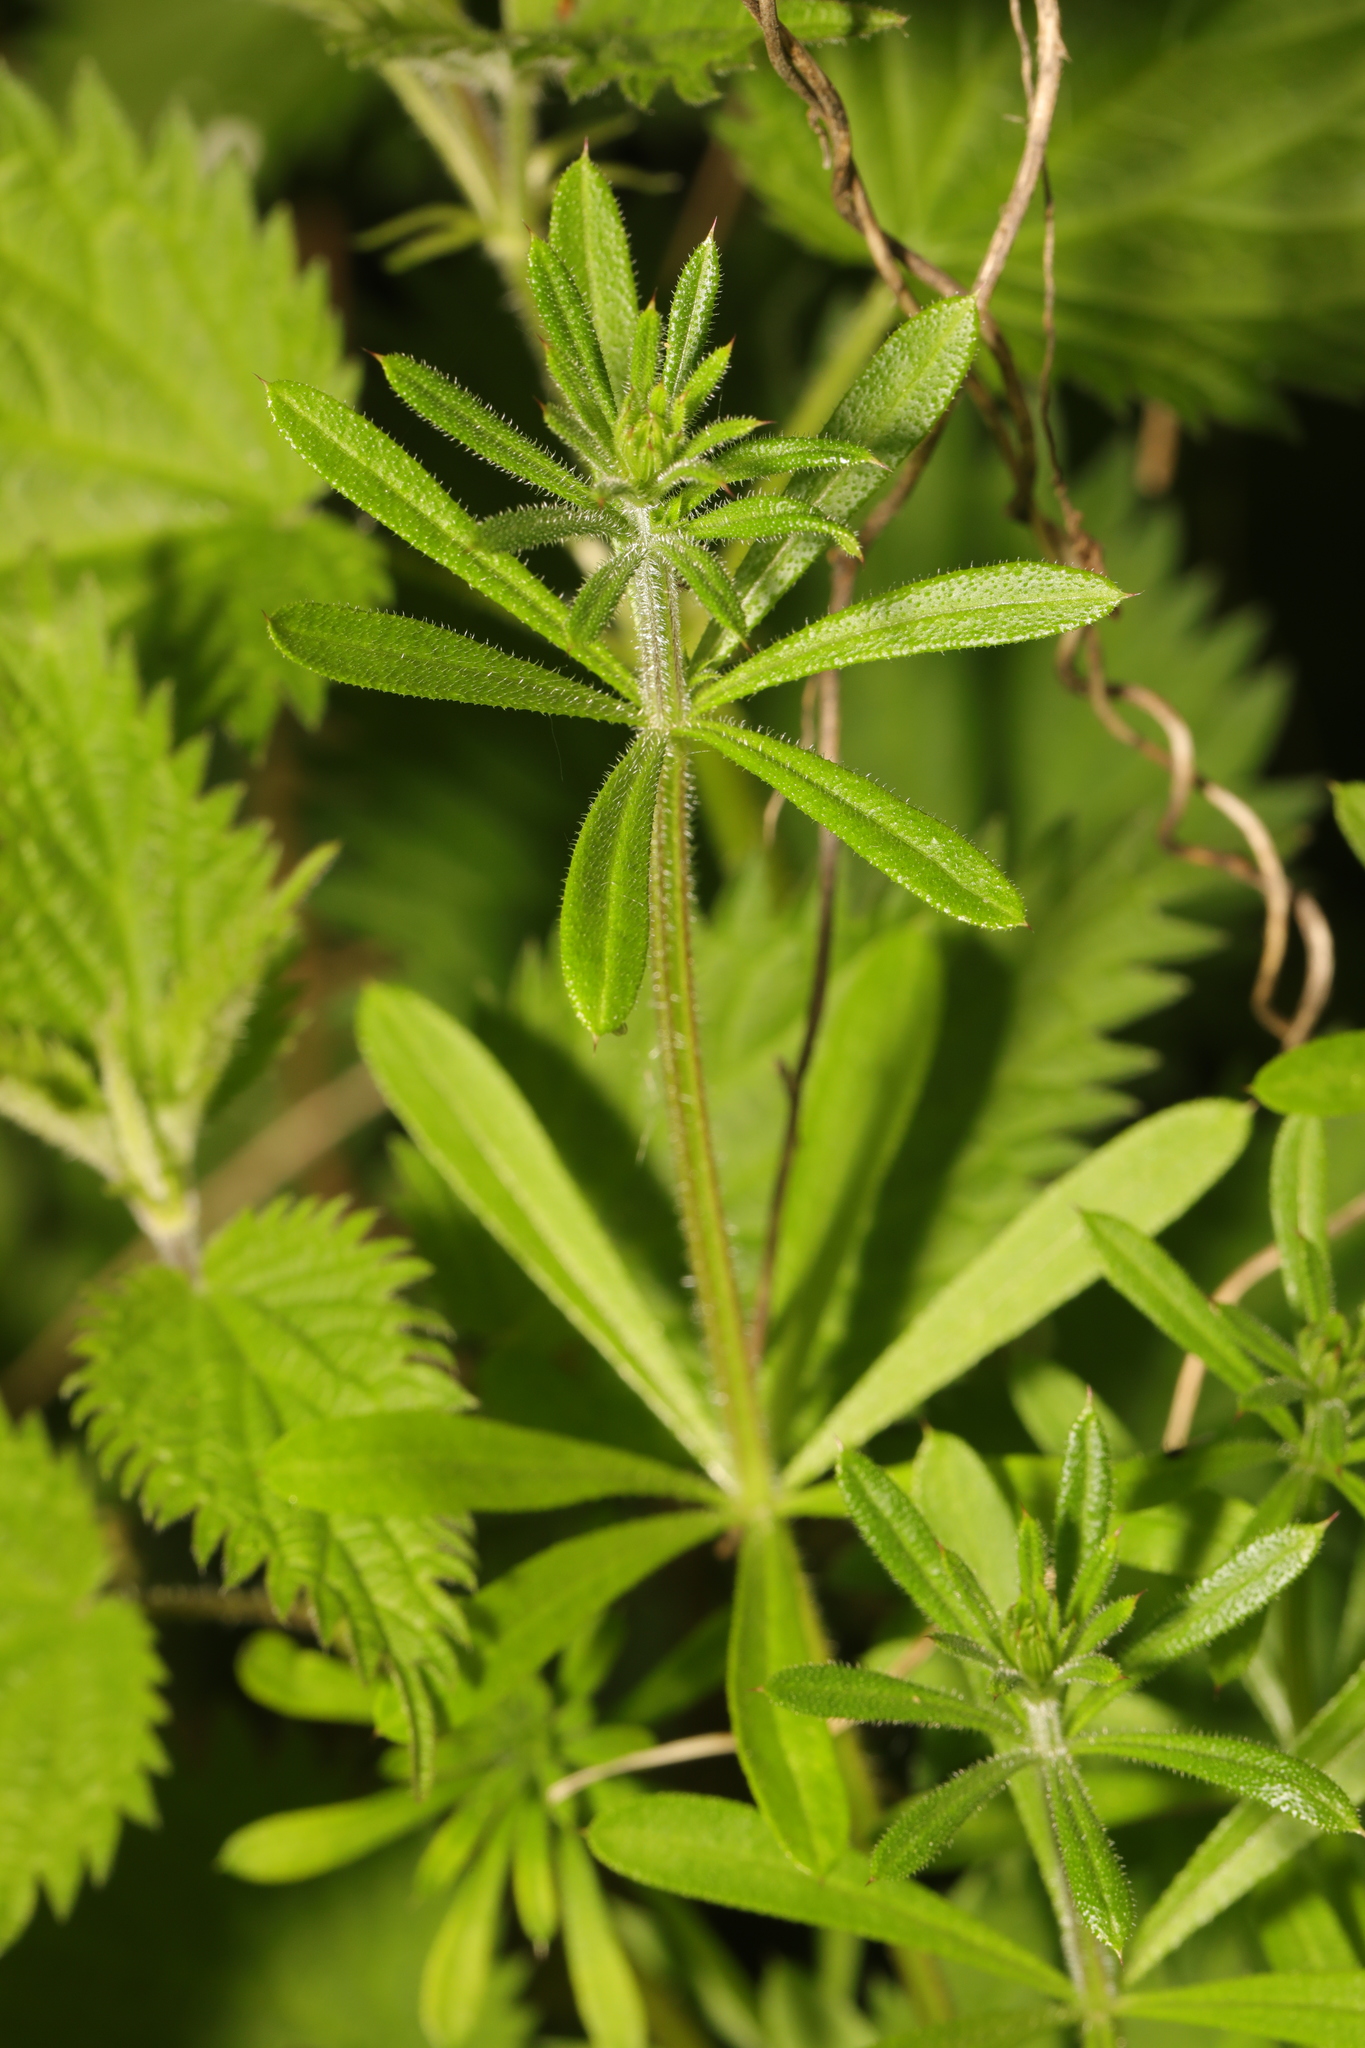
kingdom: Plantae
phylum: Tracheophyta
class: Magnoliopsida
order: Gentianales
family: Rubiaceae
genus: Galium
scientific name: Galium aparine
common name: Cleavers
